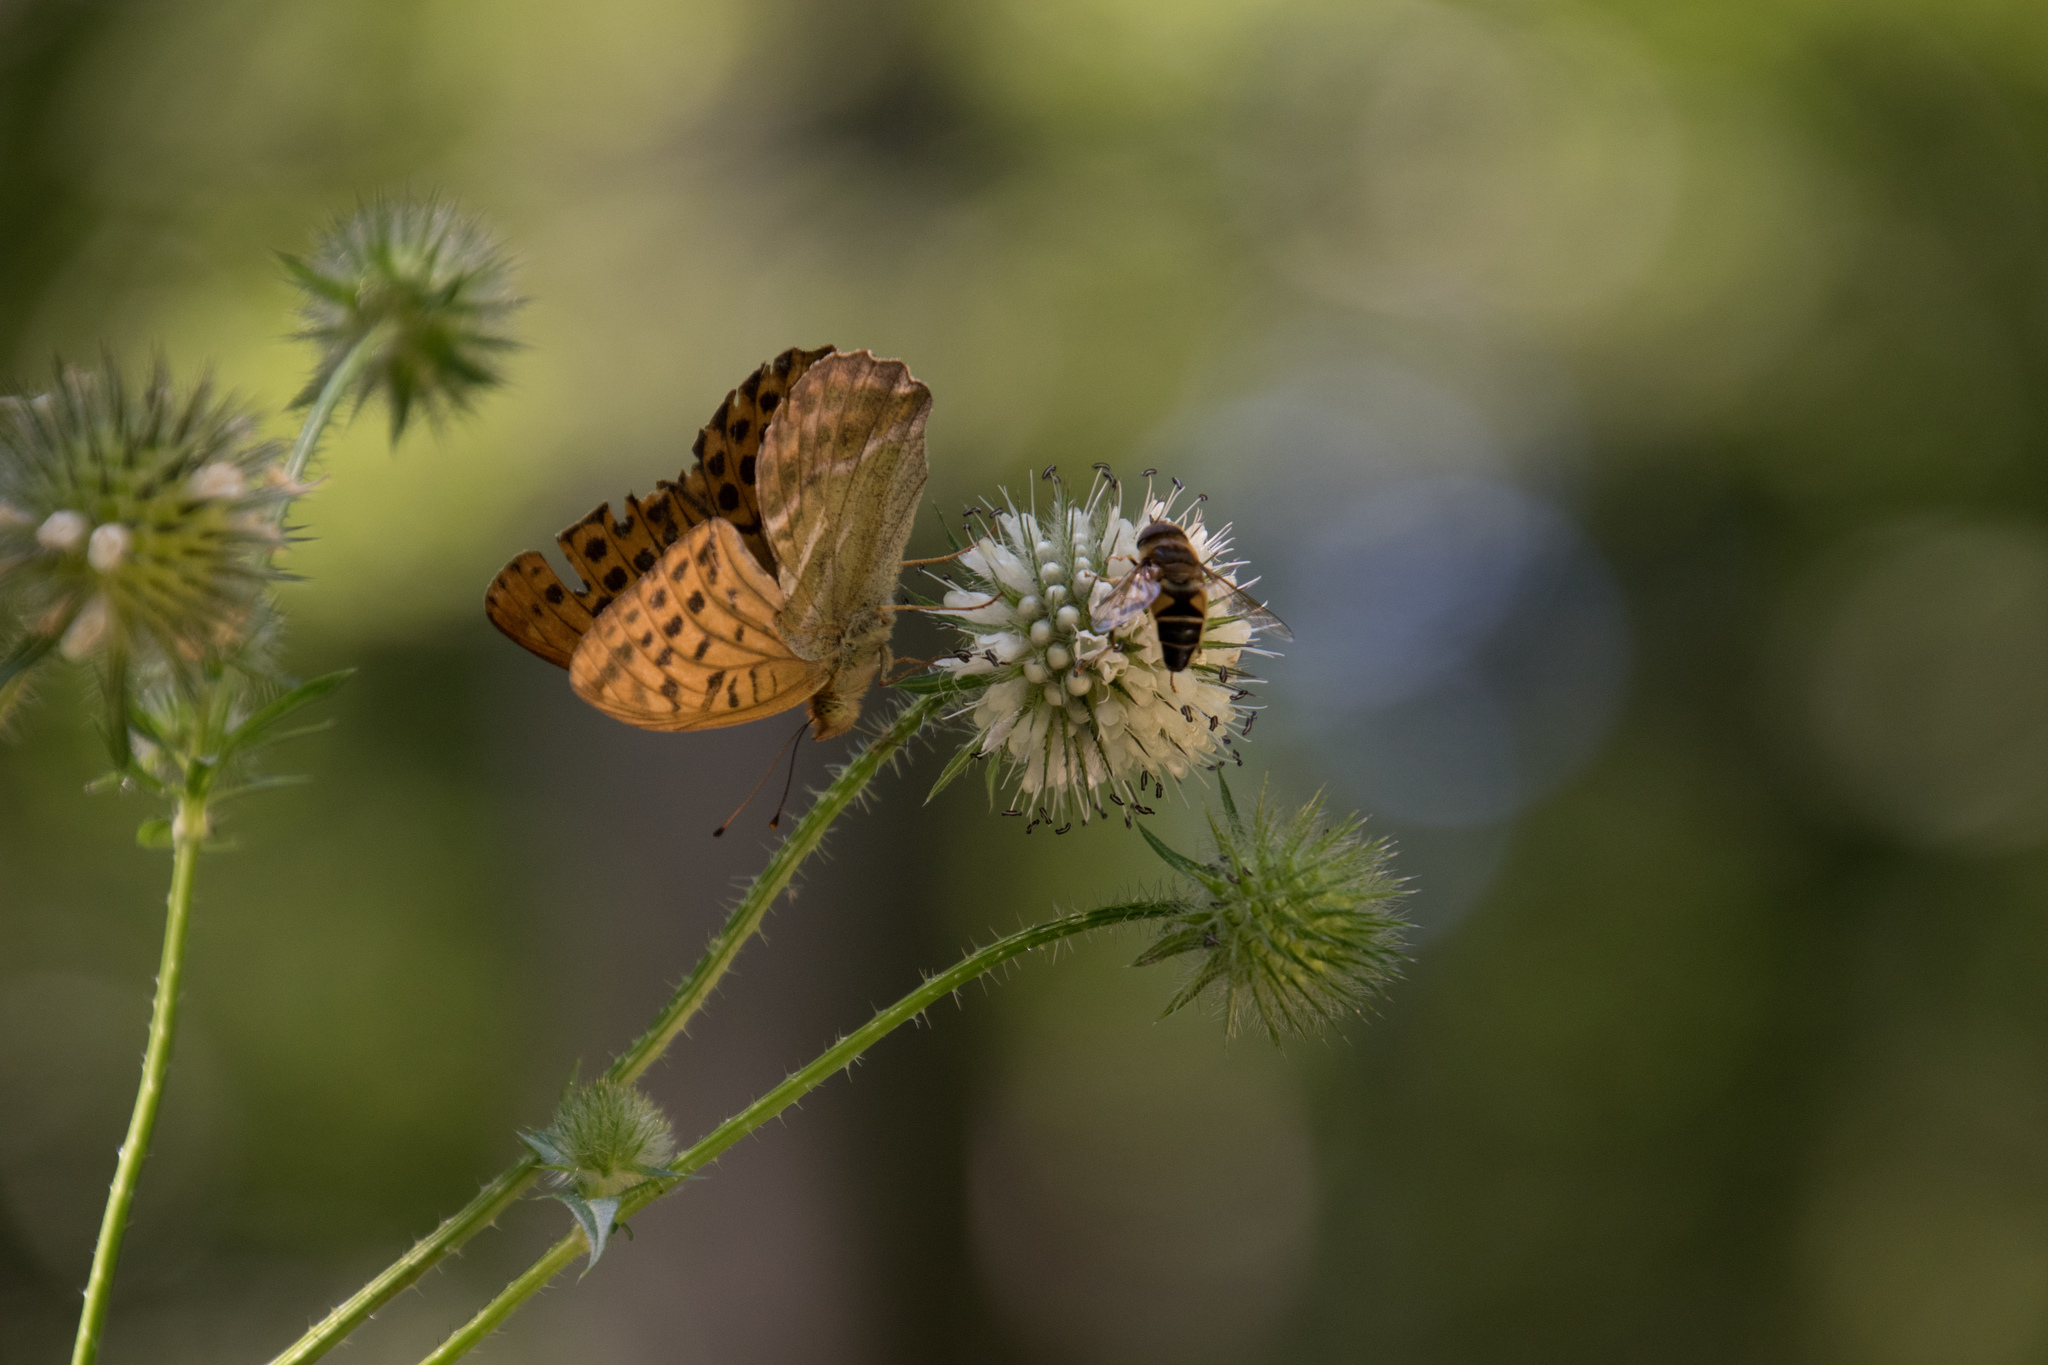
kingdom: Animalia
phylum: Arthropoda
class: Insecta
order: Lepidoptera
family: Nymphalidae
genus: Argynnis
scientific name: Argynnis paphia
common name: Silver-washed fritillary
